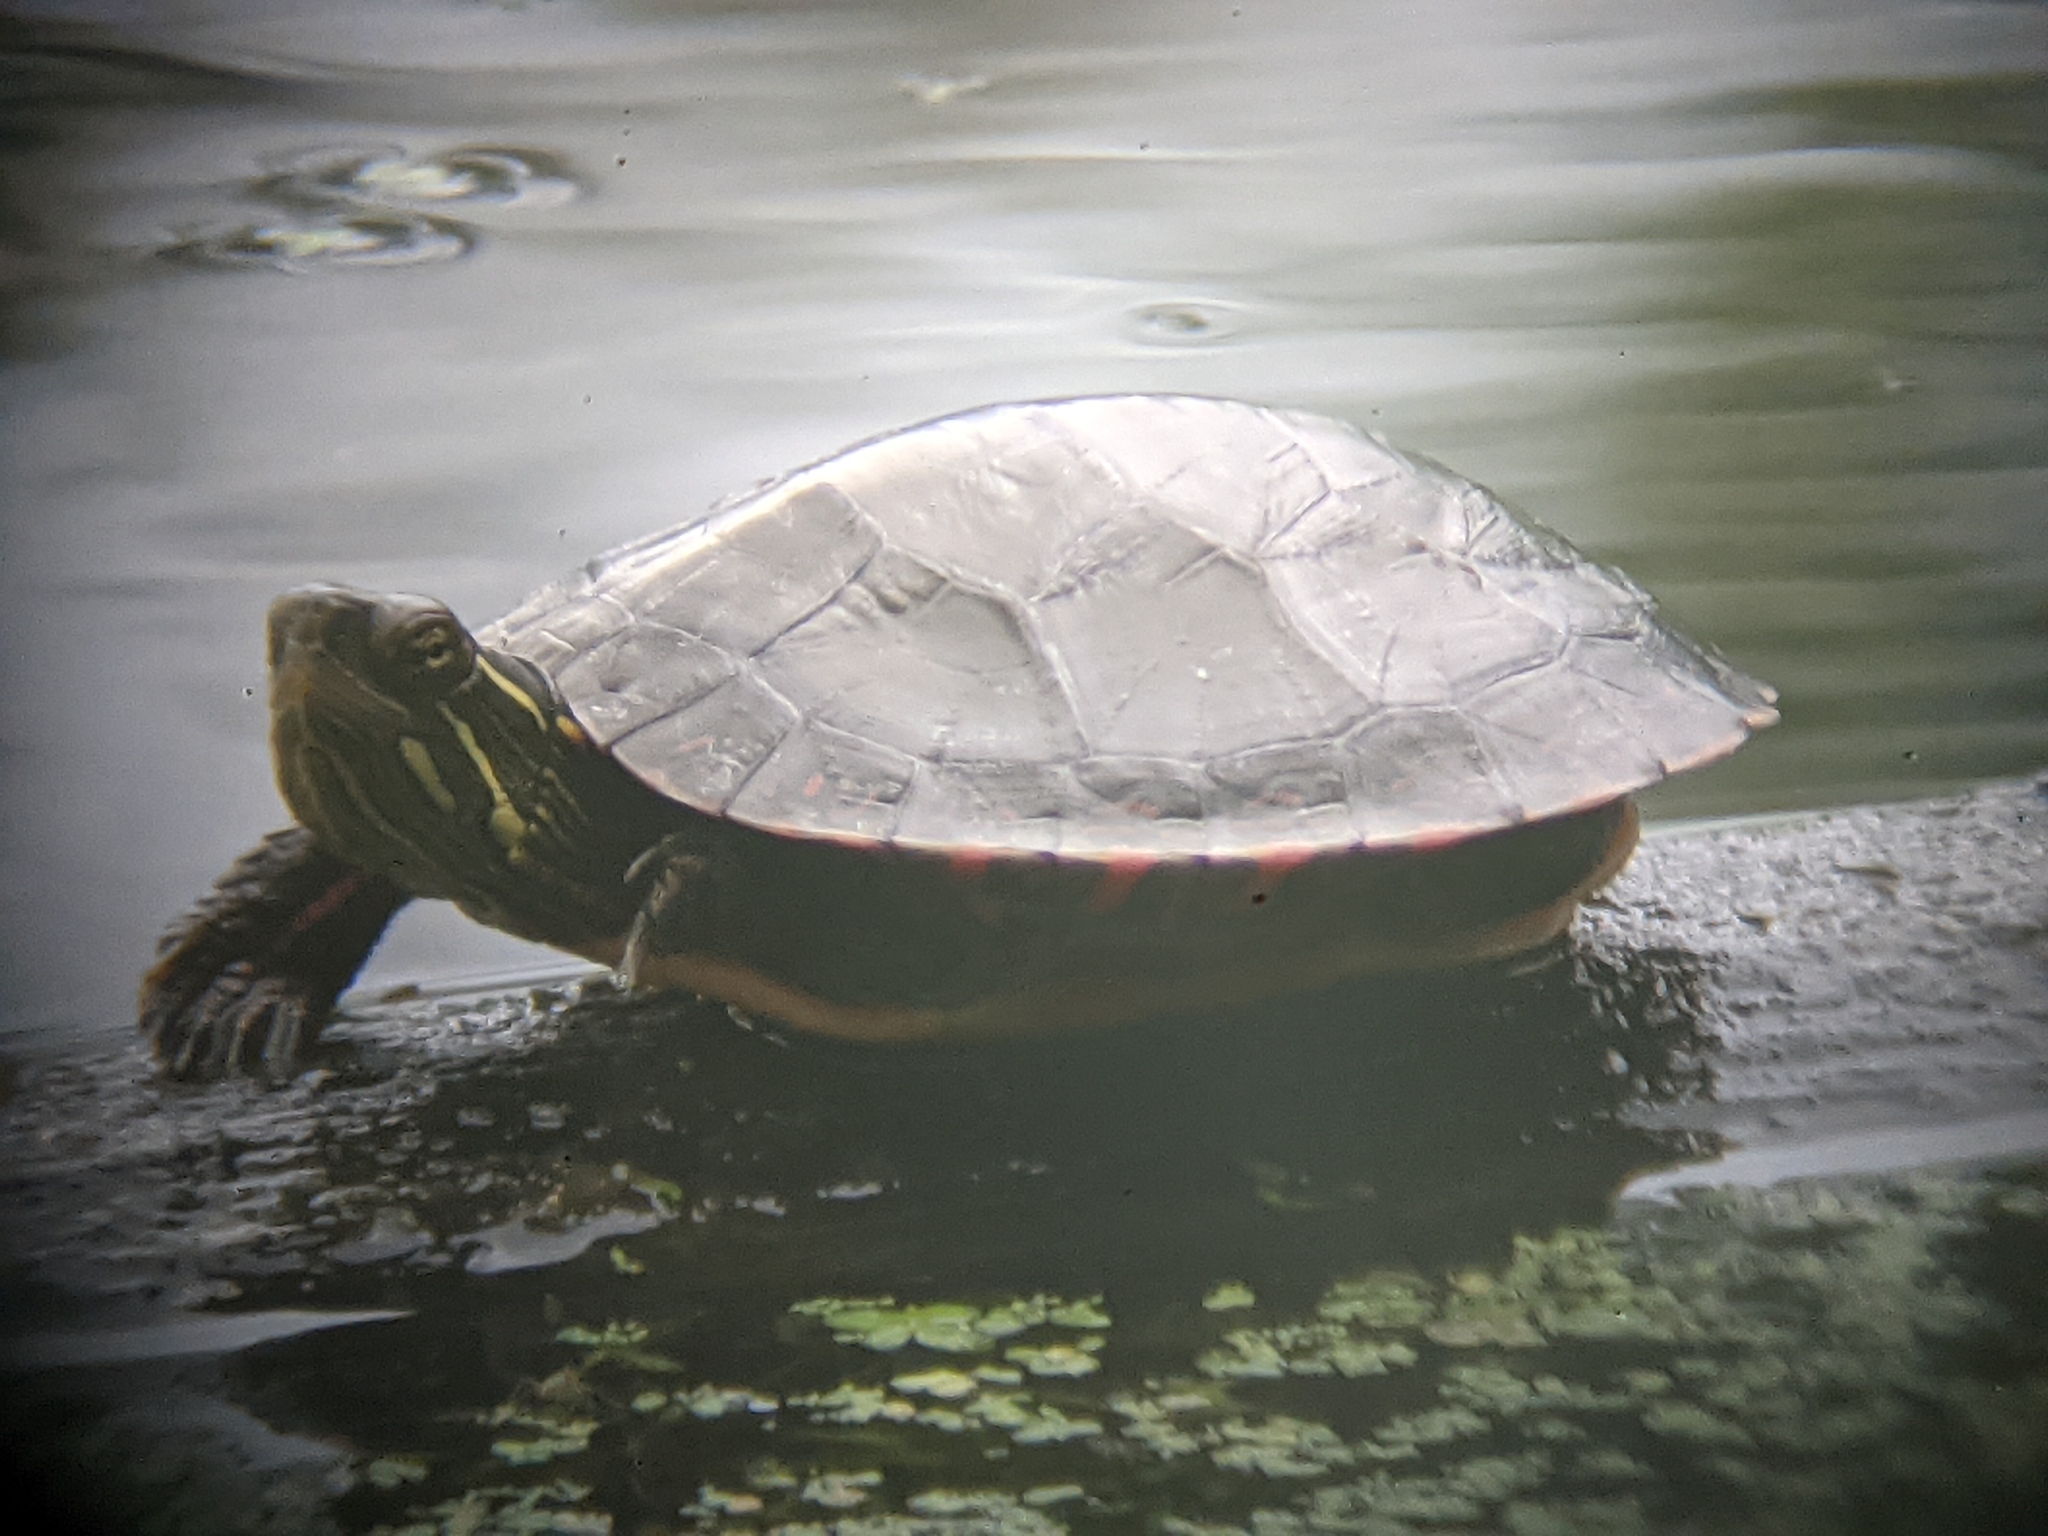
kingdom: Animalia
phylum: Chordata
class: Testudines
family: Emydidae
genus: Chrysemys
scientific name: Chrysemys picta
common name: Painted turtle
